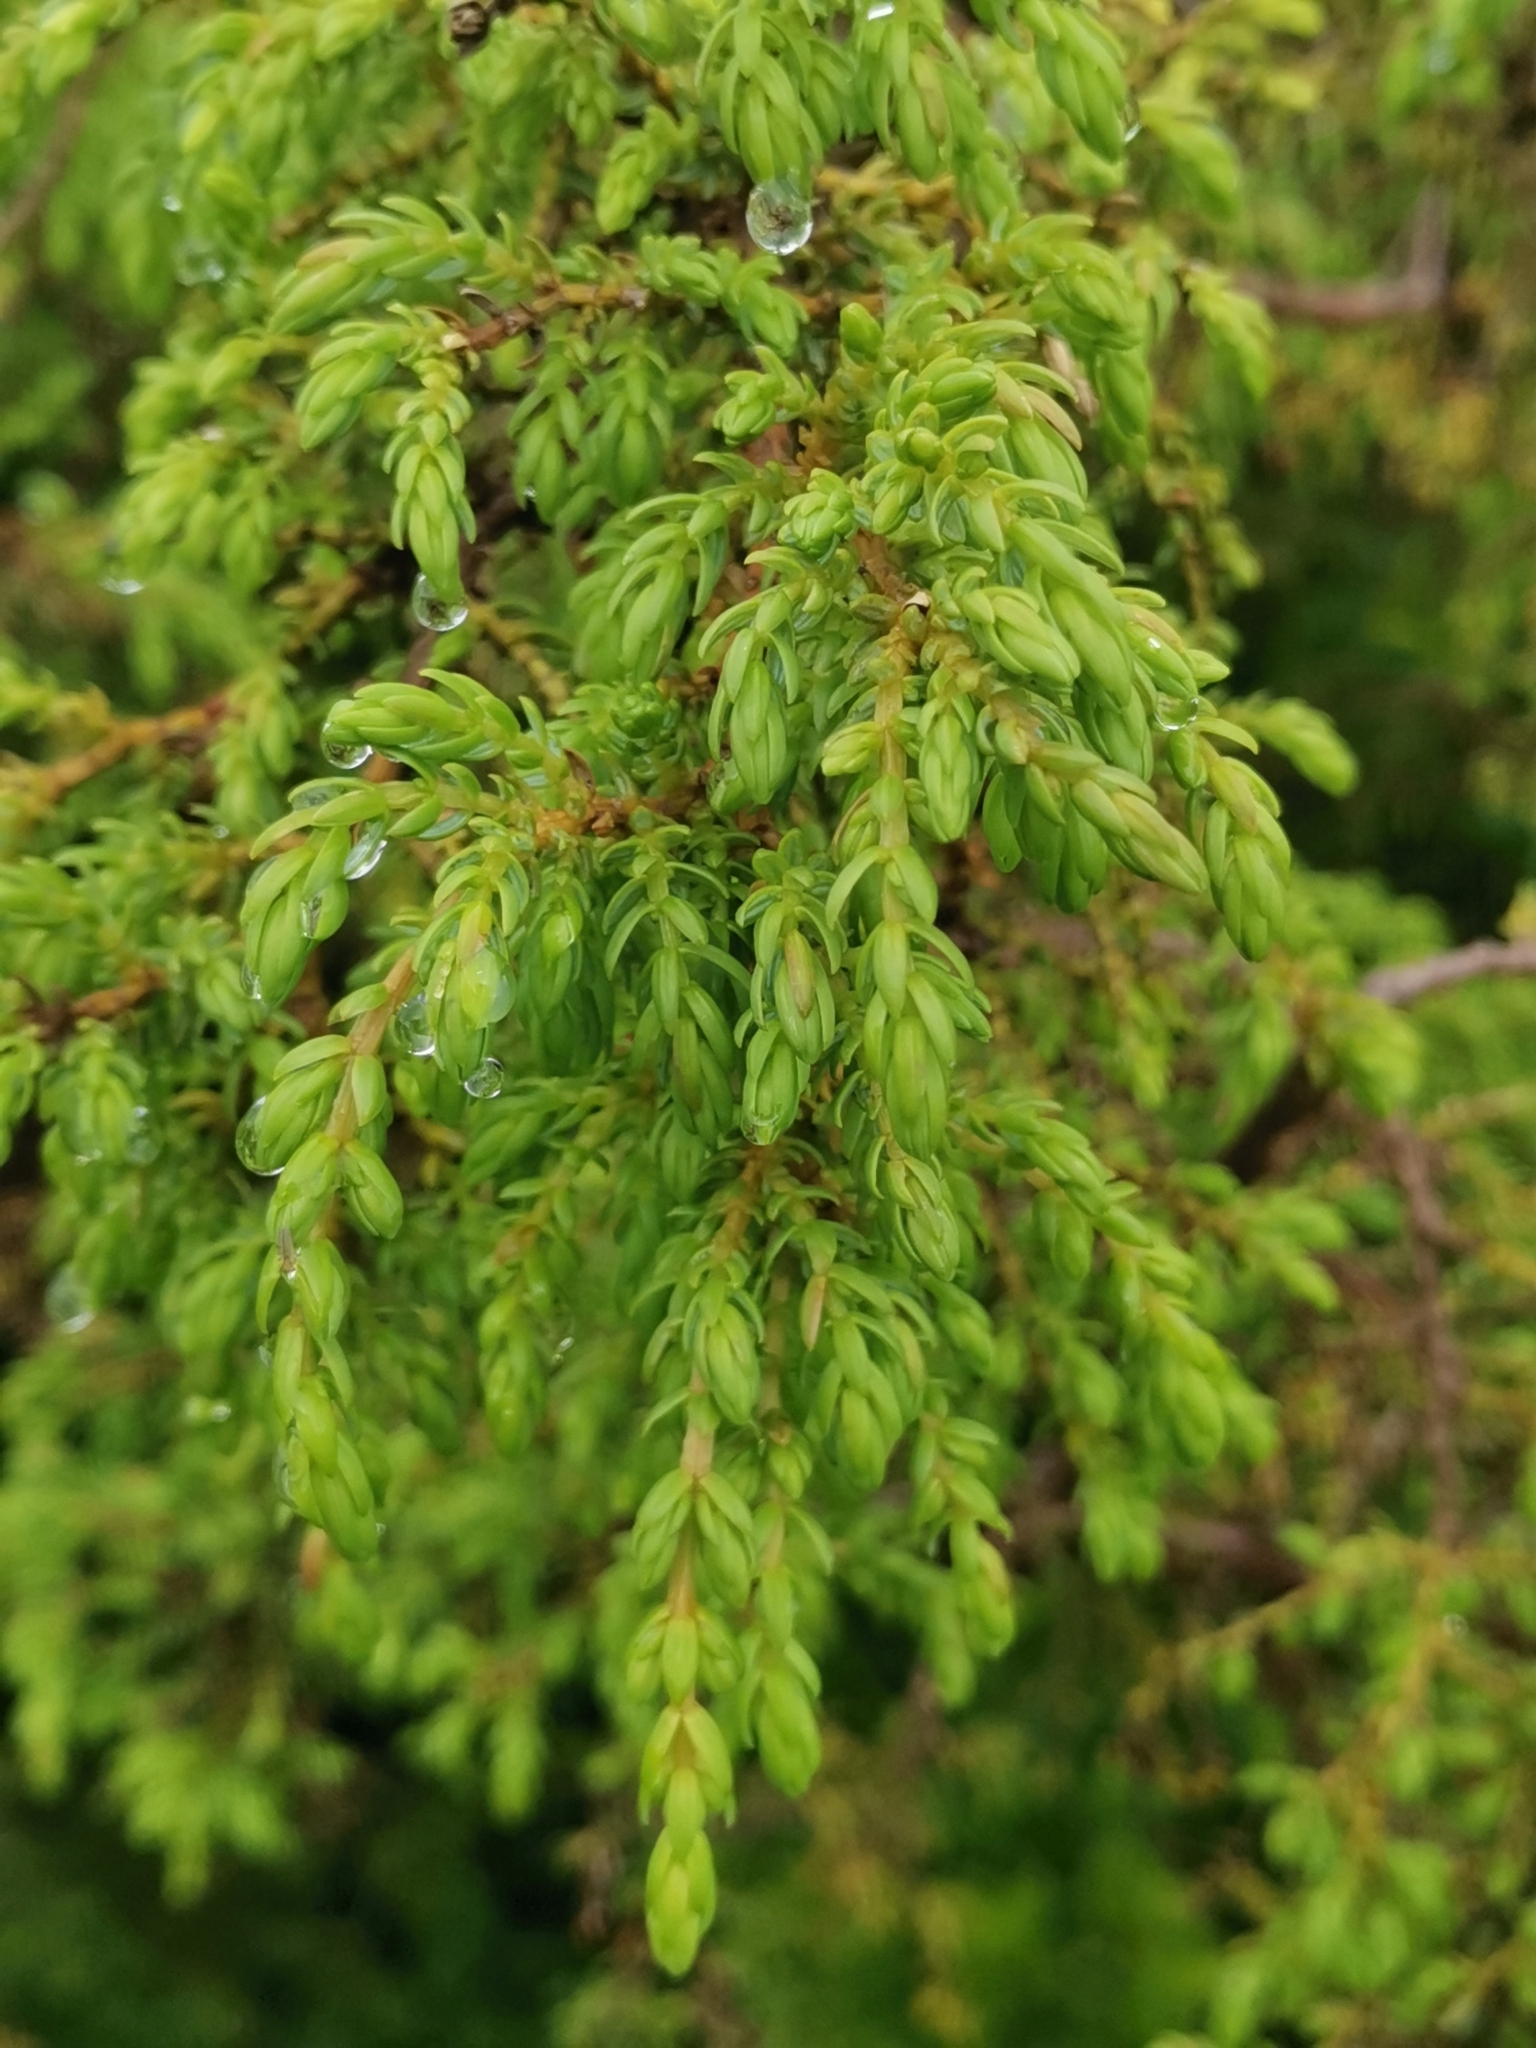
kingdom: Plantae
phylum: Tracheophyta
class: Pinopsida
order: Pinales
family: Cupressaceae
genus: Juniperus
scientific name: Juniperus brevifolia
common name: Azores juniper
